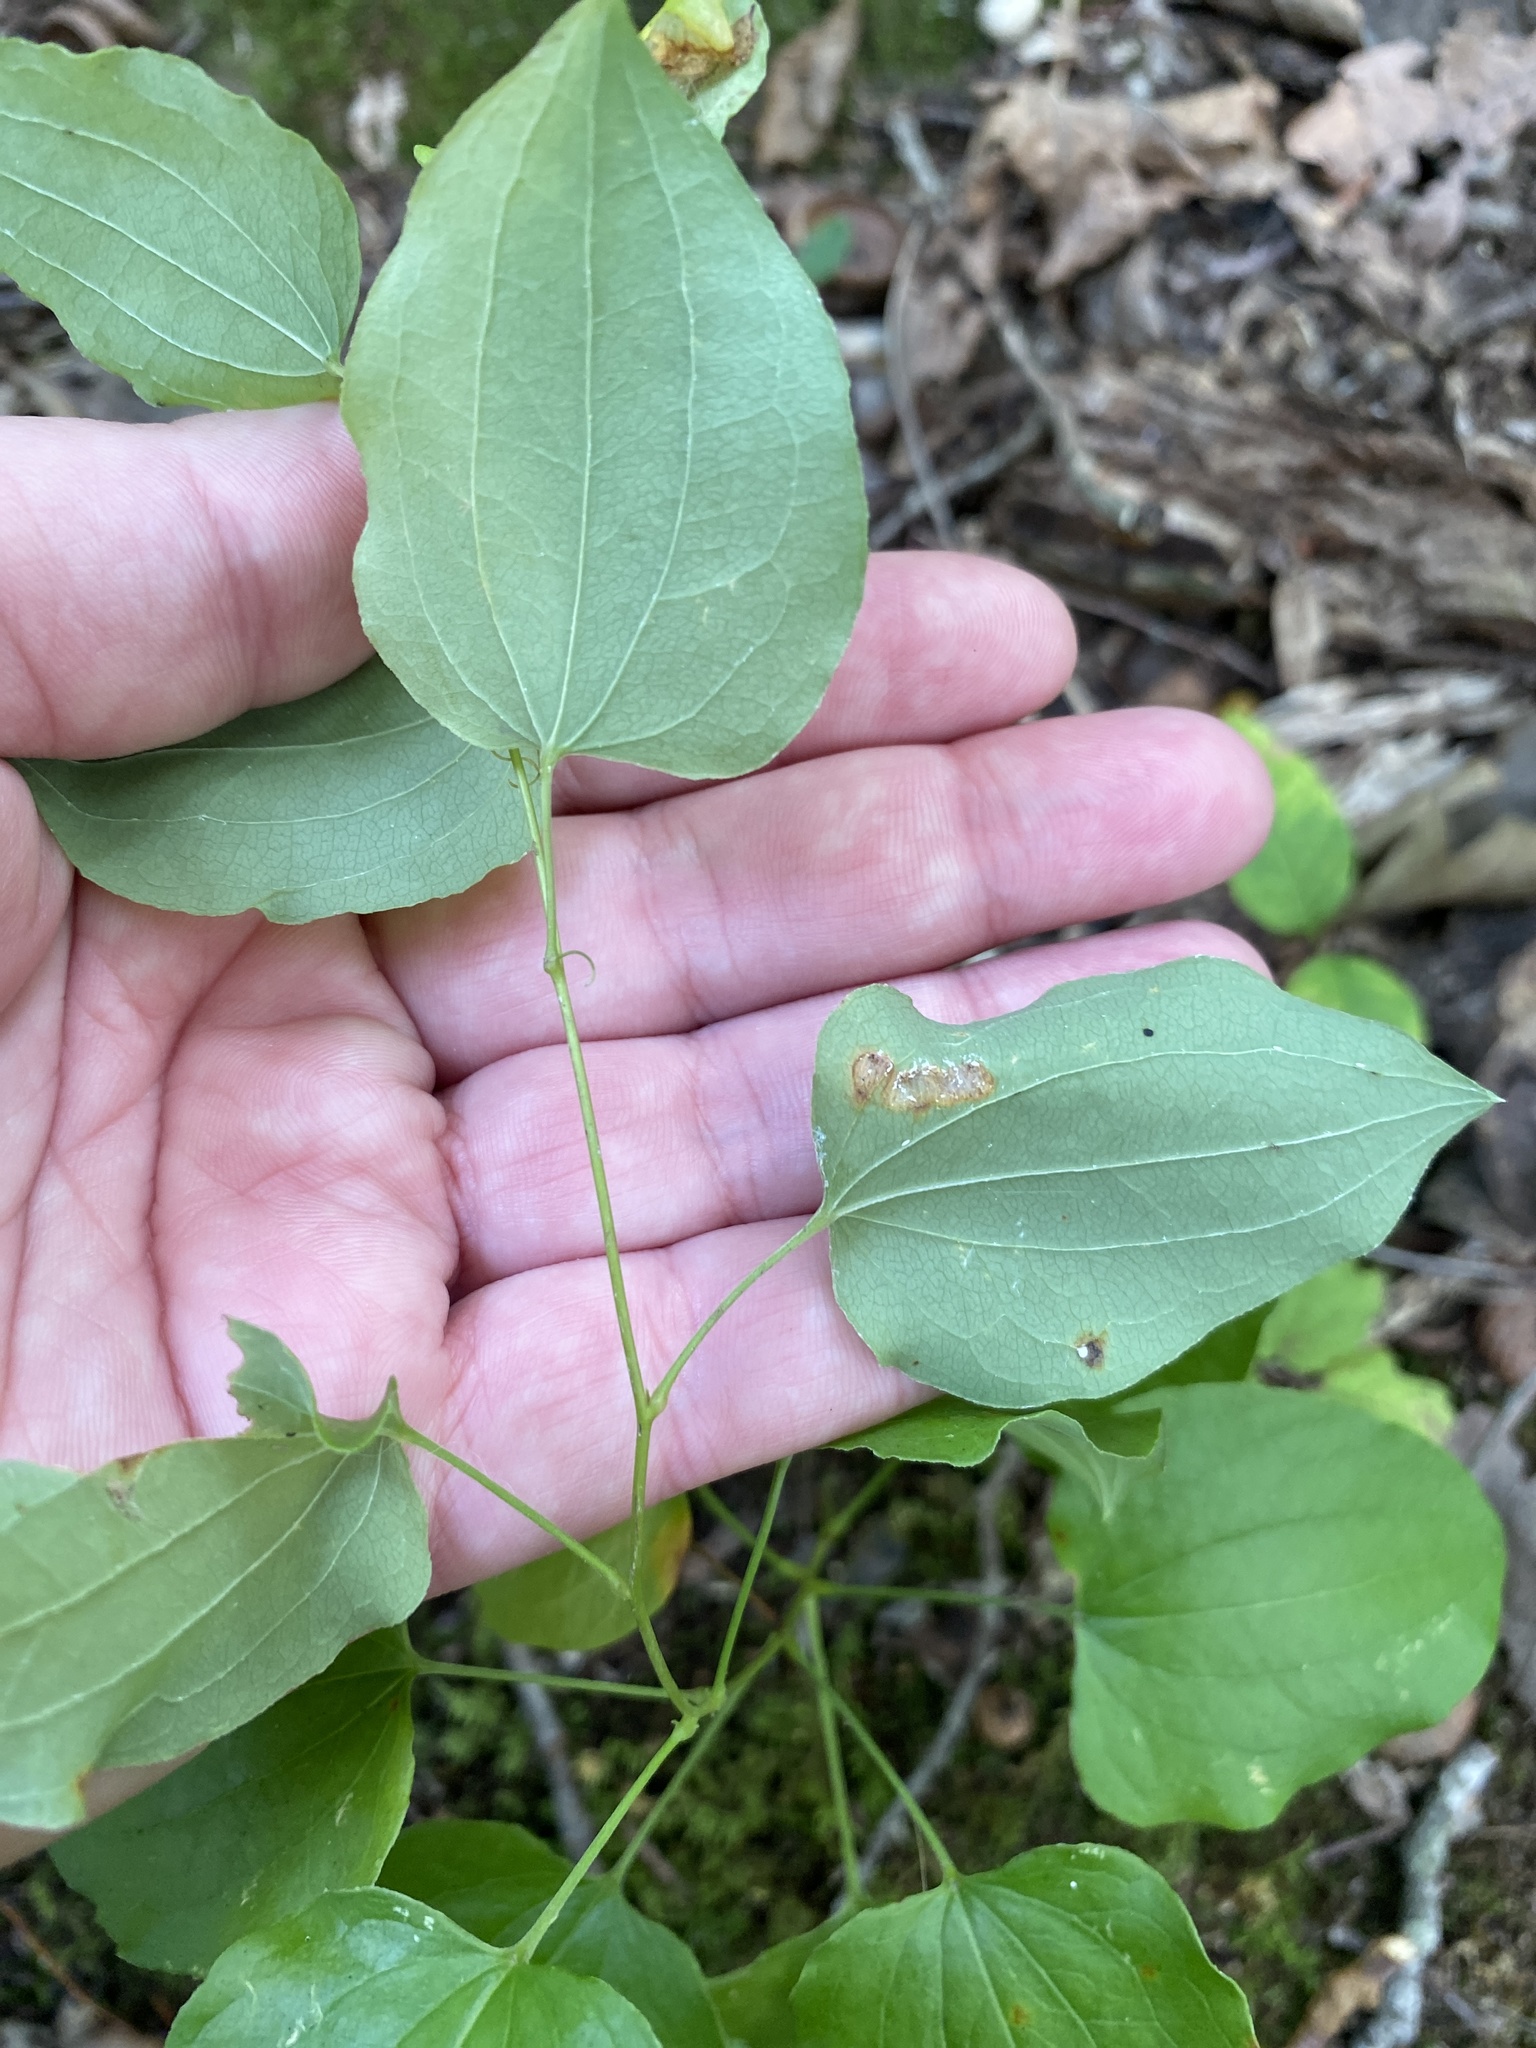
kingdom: Plantae
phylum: Tracheophyta
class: Liliopsida
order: Liliales
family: Smilacaceae
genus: Smilax
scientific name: Smilax herbacea
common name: Jacob's-ladder
